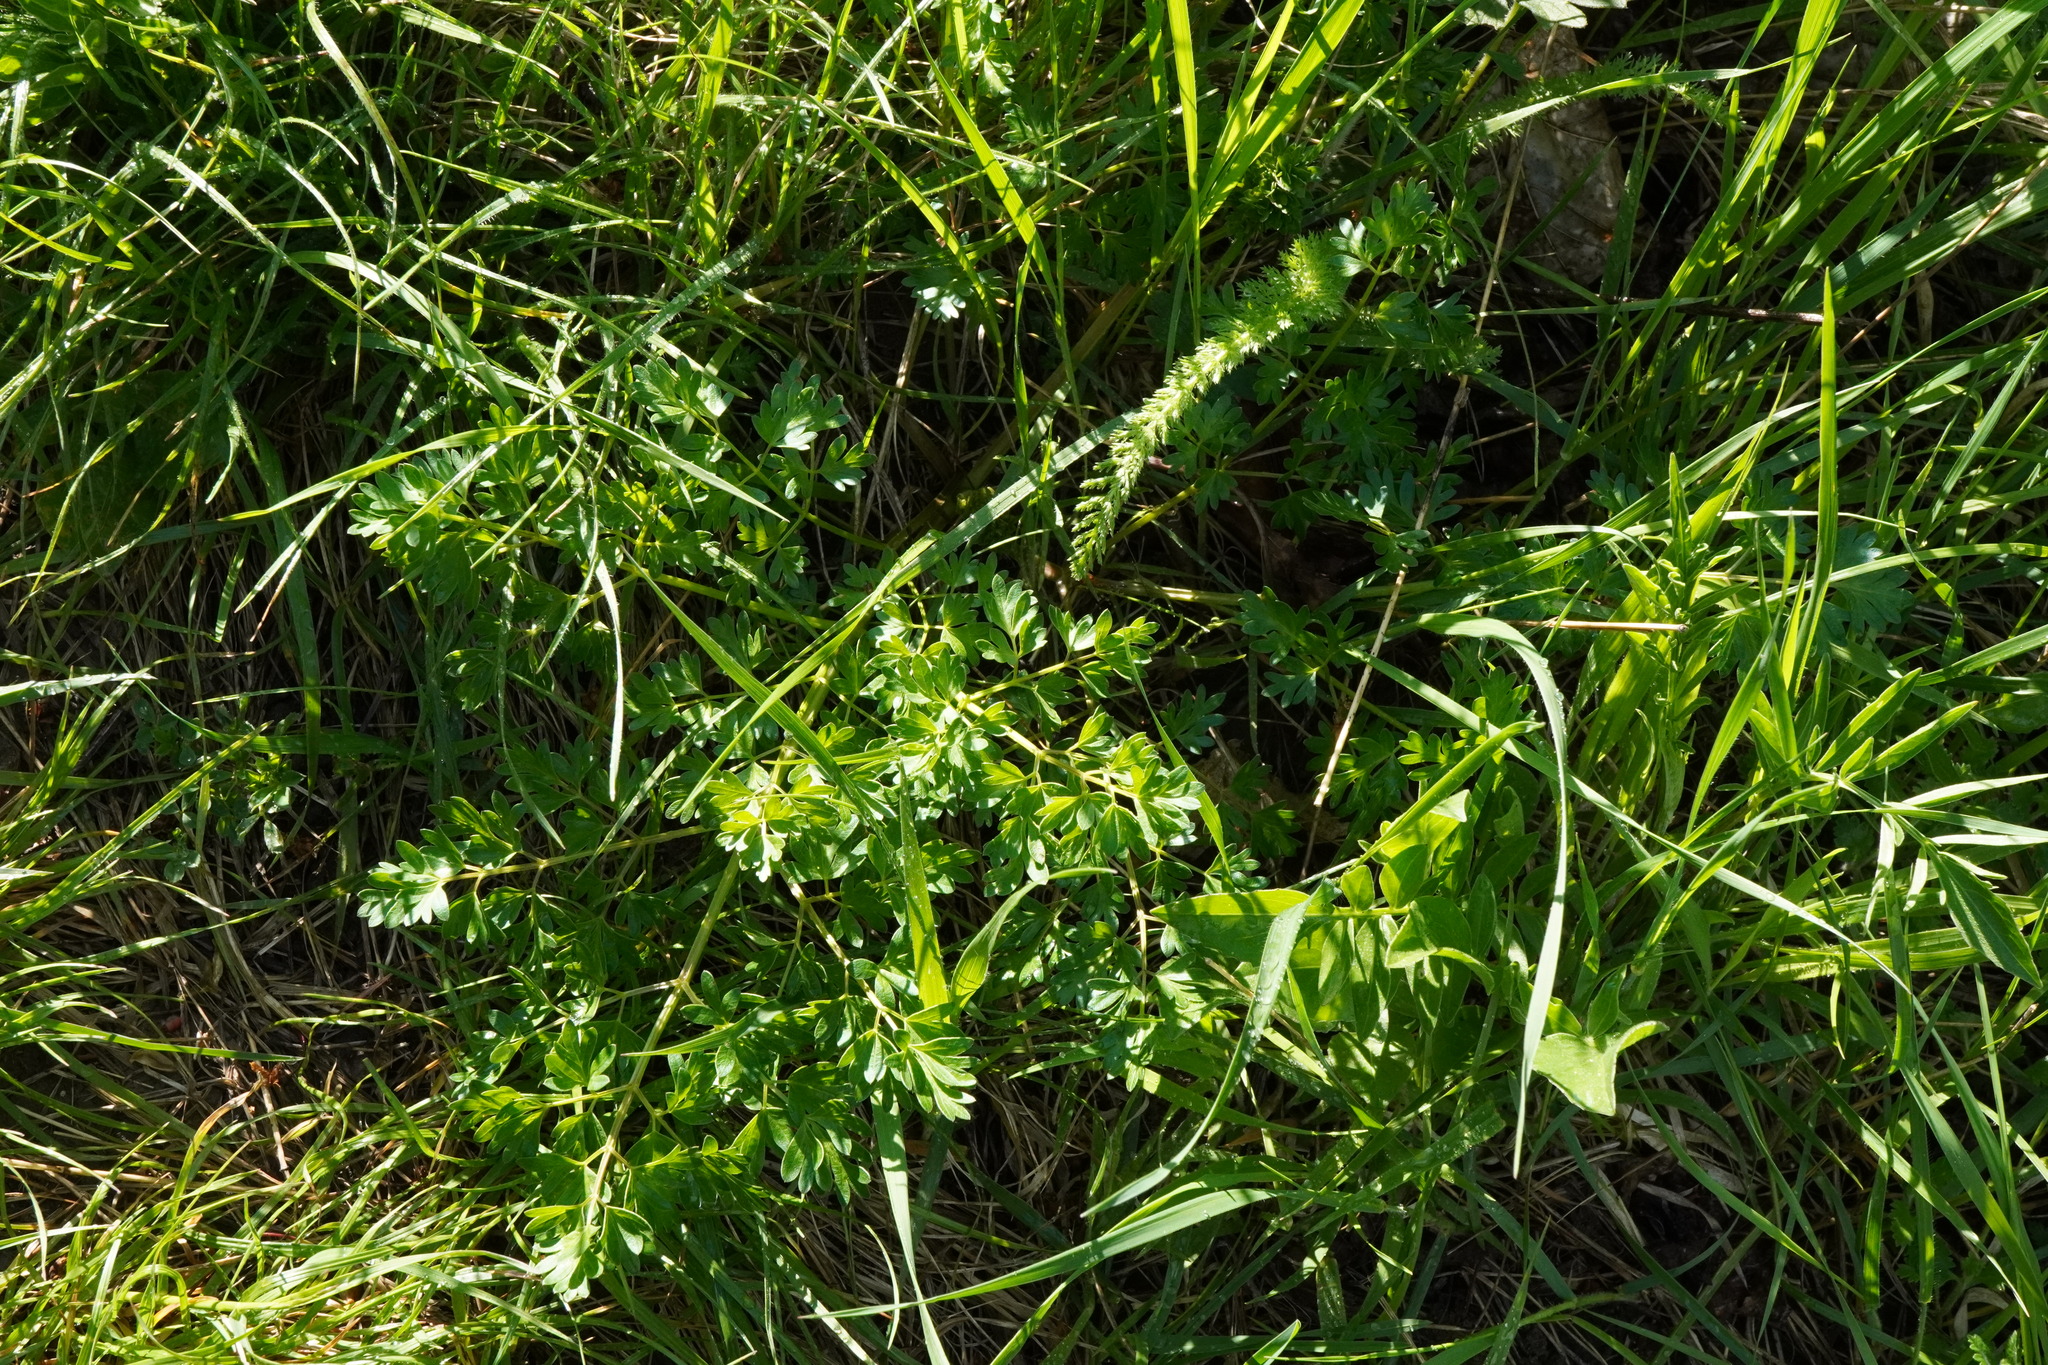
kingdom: Plantae
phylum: Tracheophyta
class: Magnoliopsida
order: Apiales
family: Apiaceae
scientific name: Apiaceae
